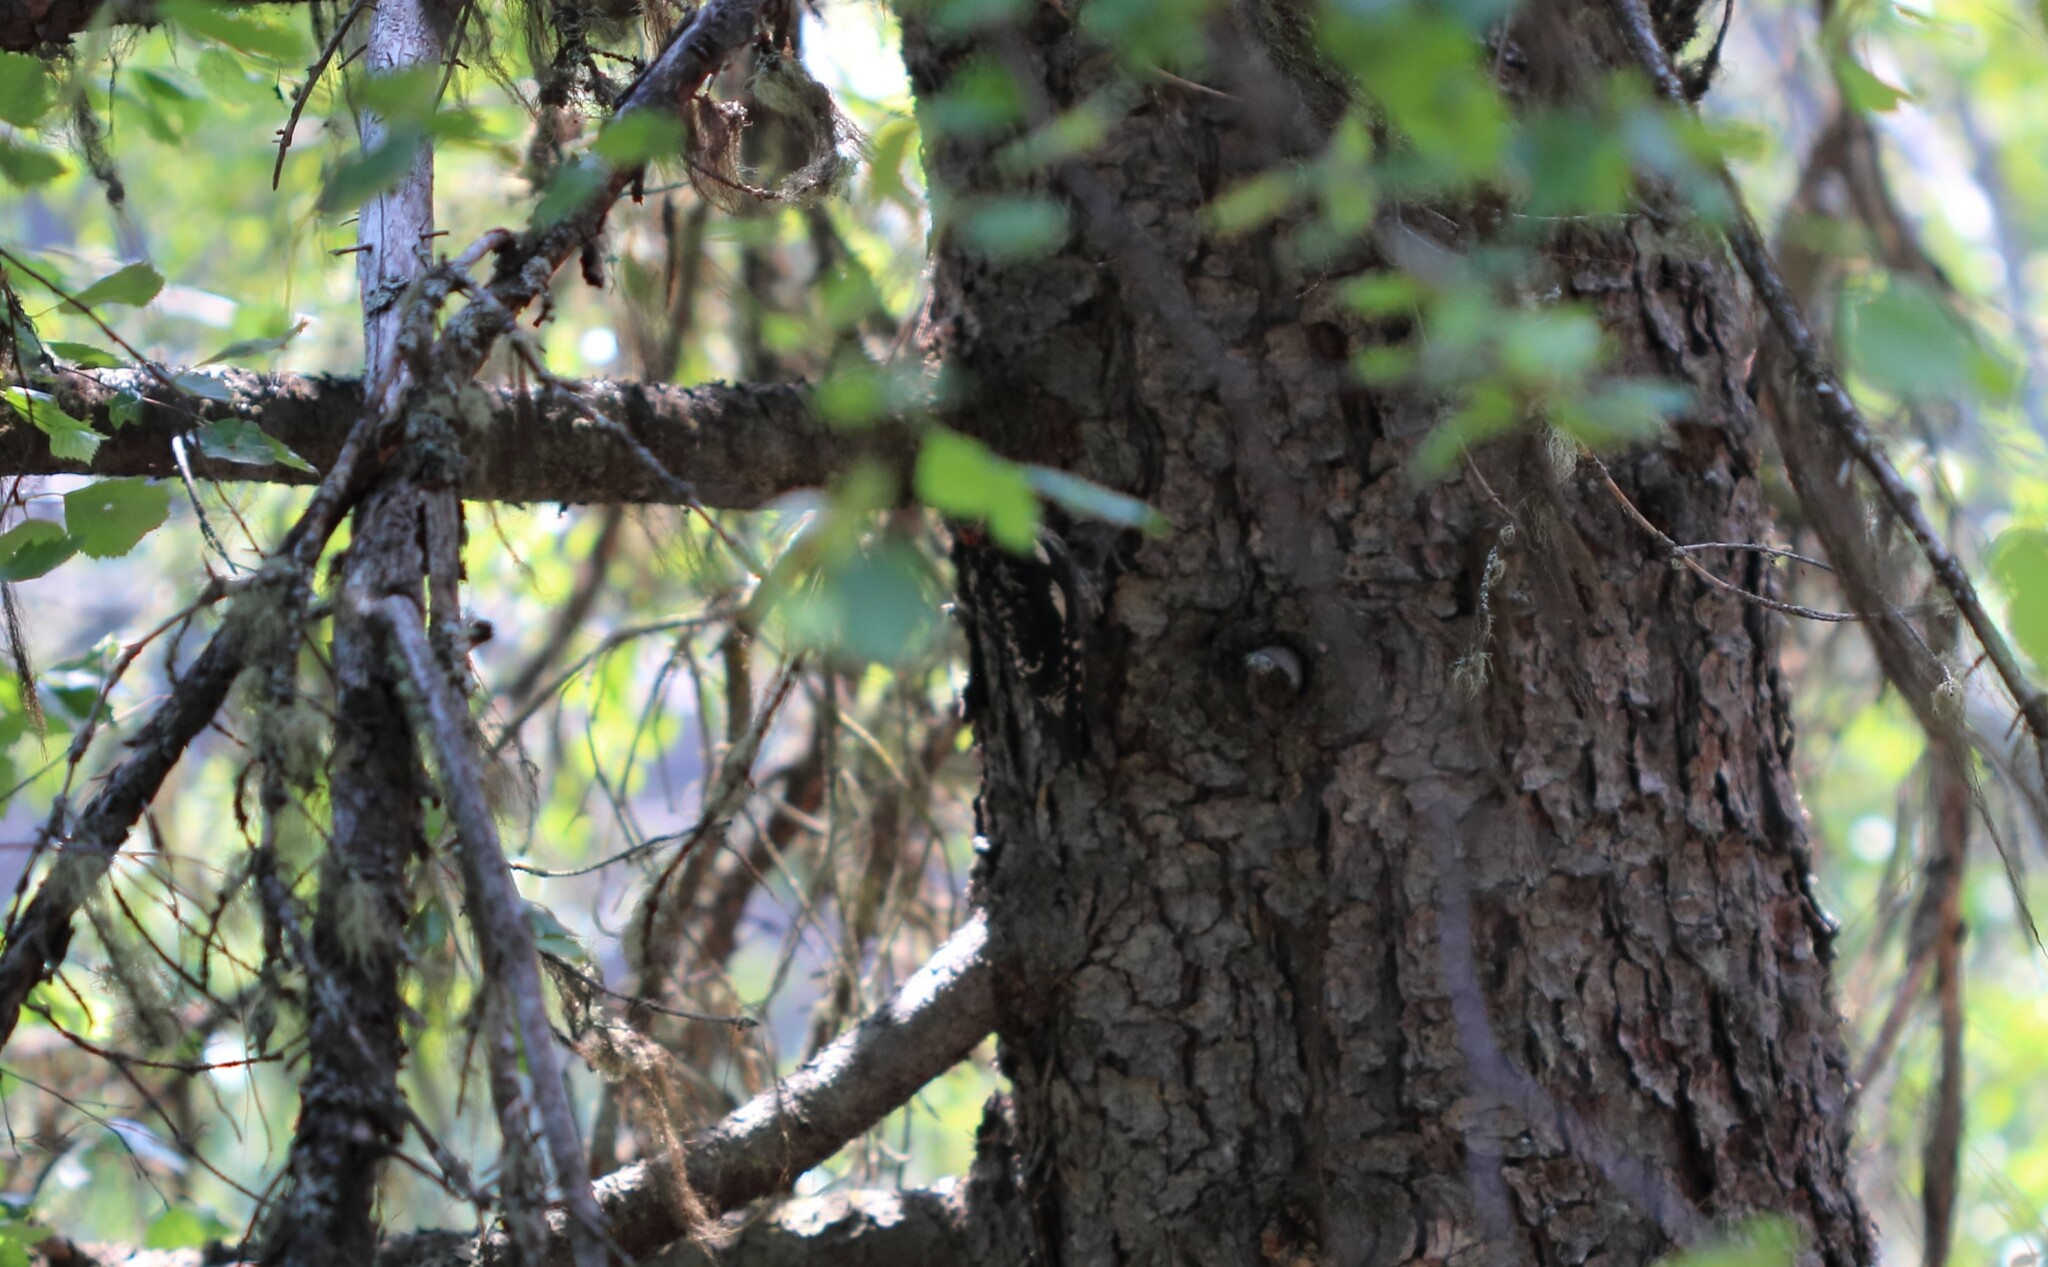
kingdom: Animalia
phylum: Chordata
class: Aves
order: Piciformes
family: Picidae
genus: Sphyrapicus
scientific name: Sphyrapicus nuchalis
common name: Red-naped sapsucker
